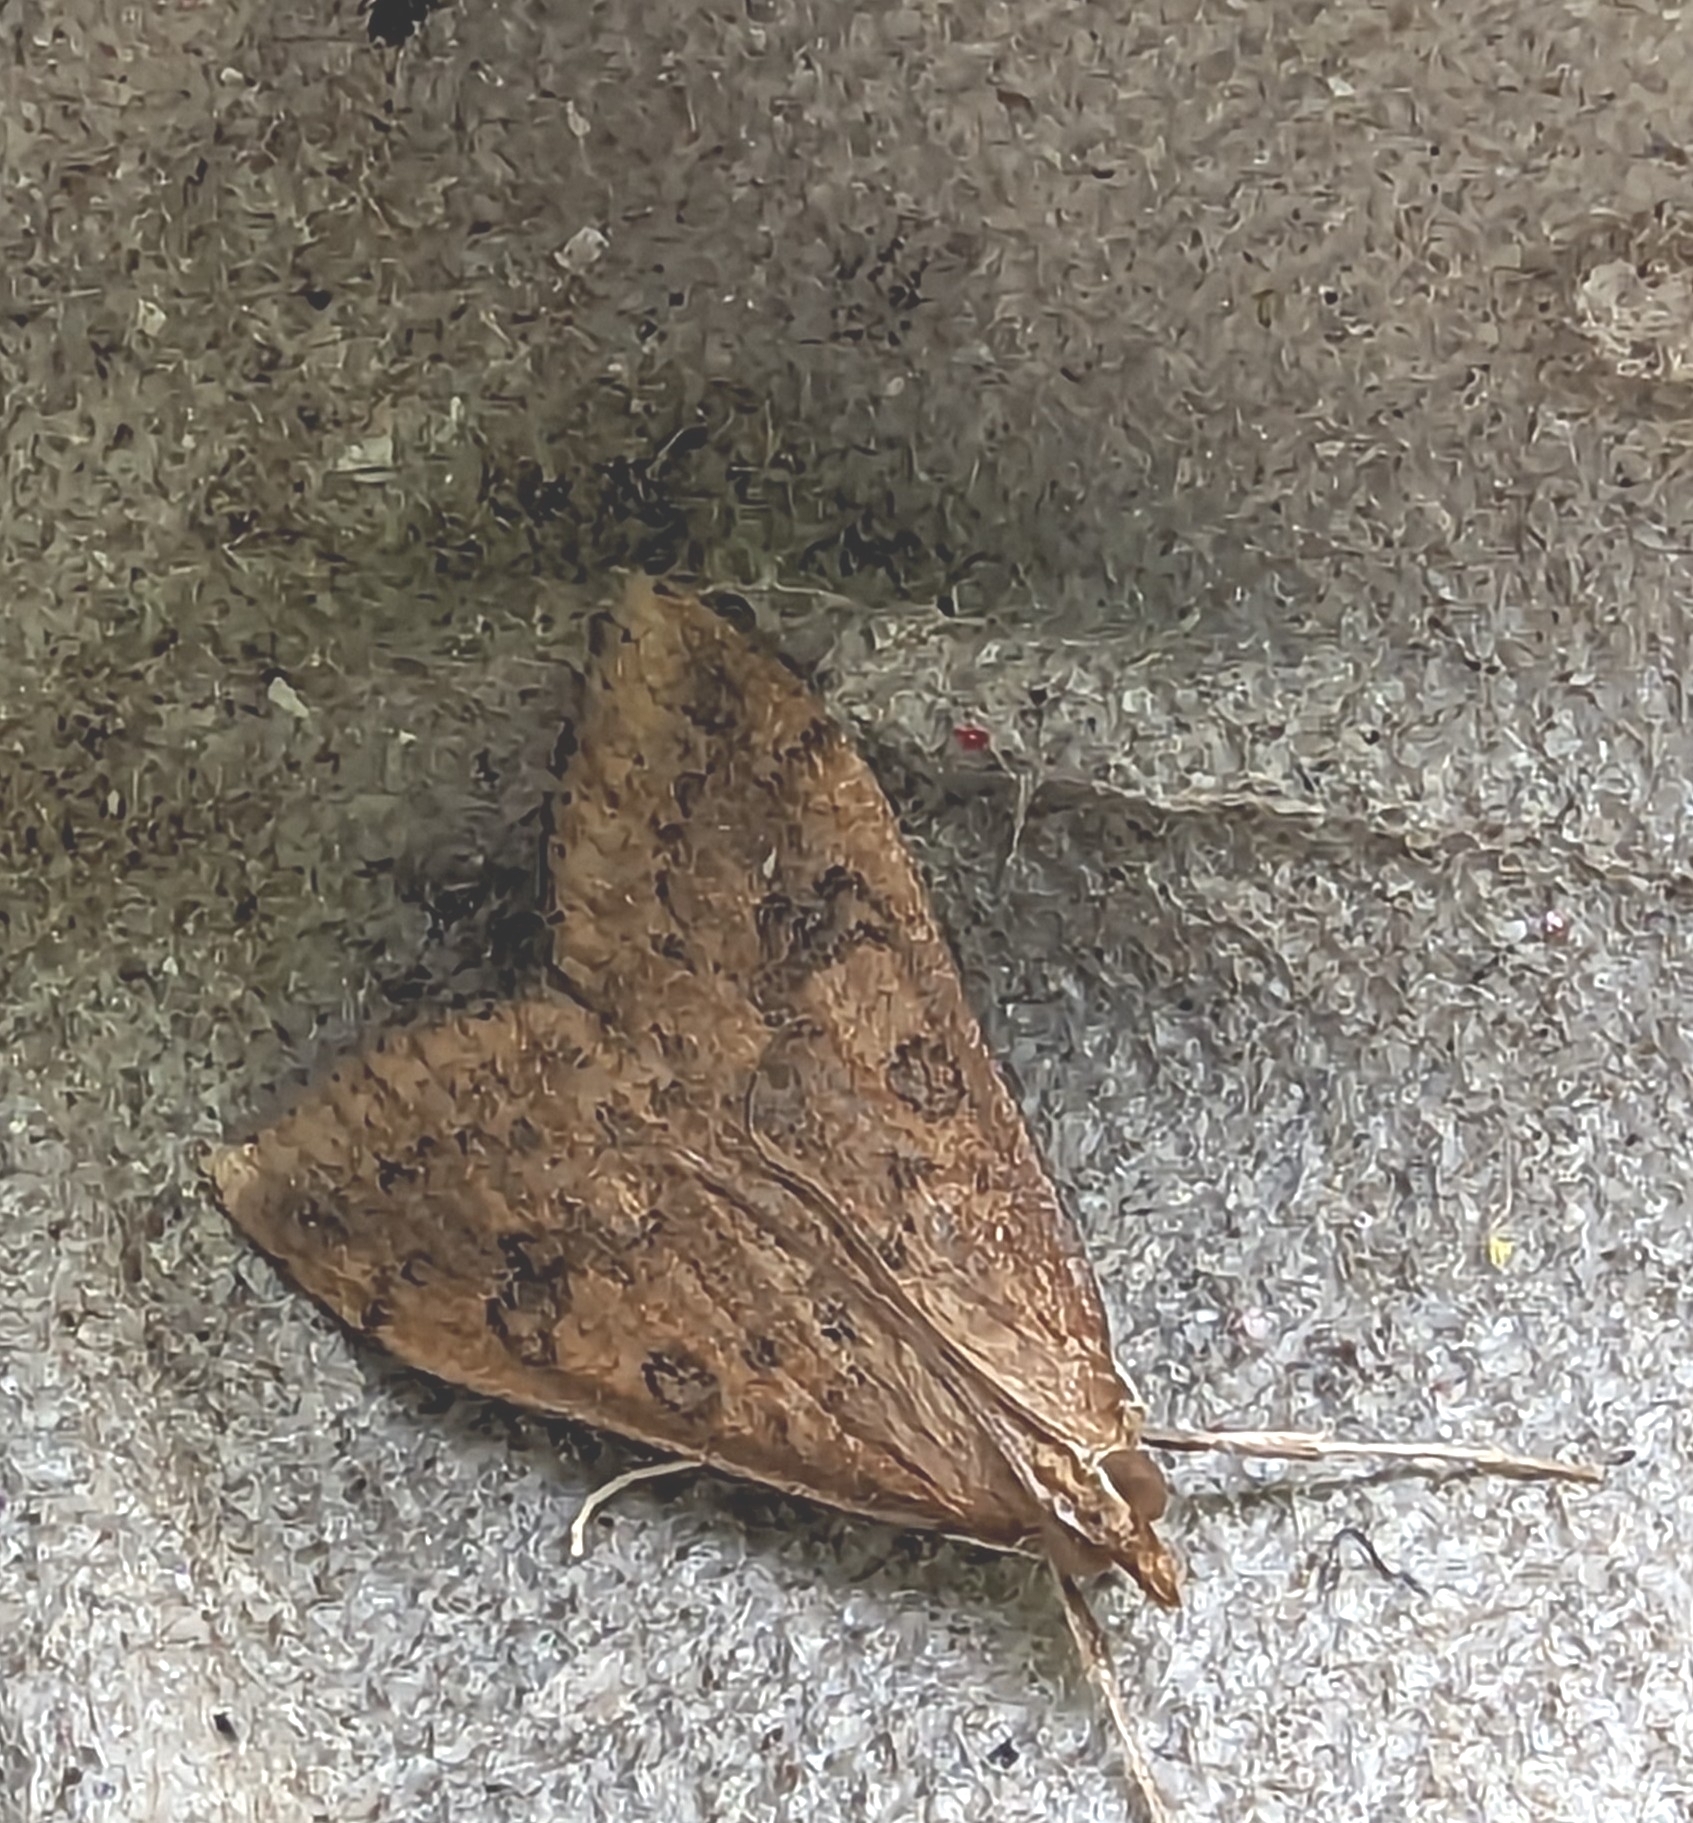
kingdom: Animalia
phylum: Arthropoda
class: Insecta
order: Lepidoptera
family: Crambidae
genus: Udea
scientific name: Udea ferrugalis
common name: Rusty dot
